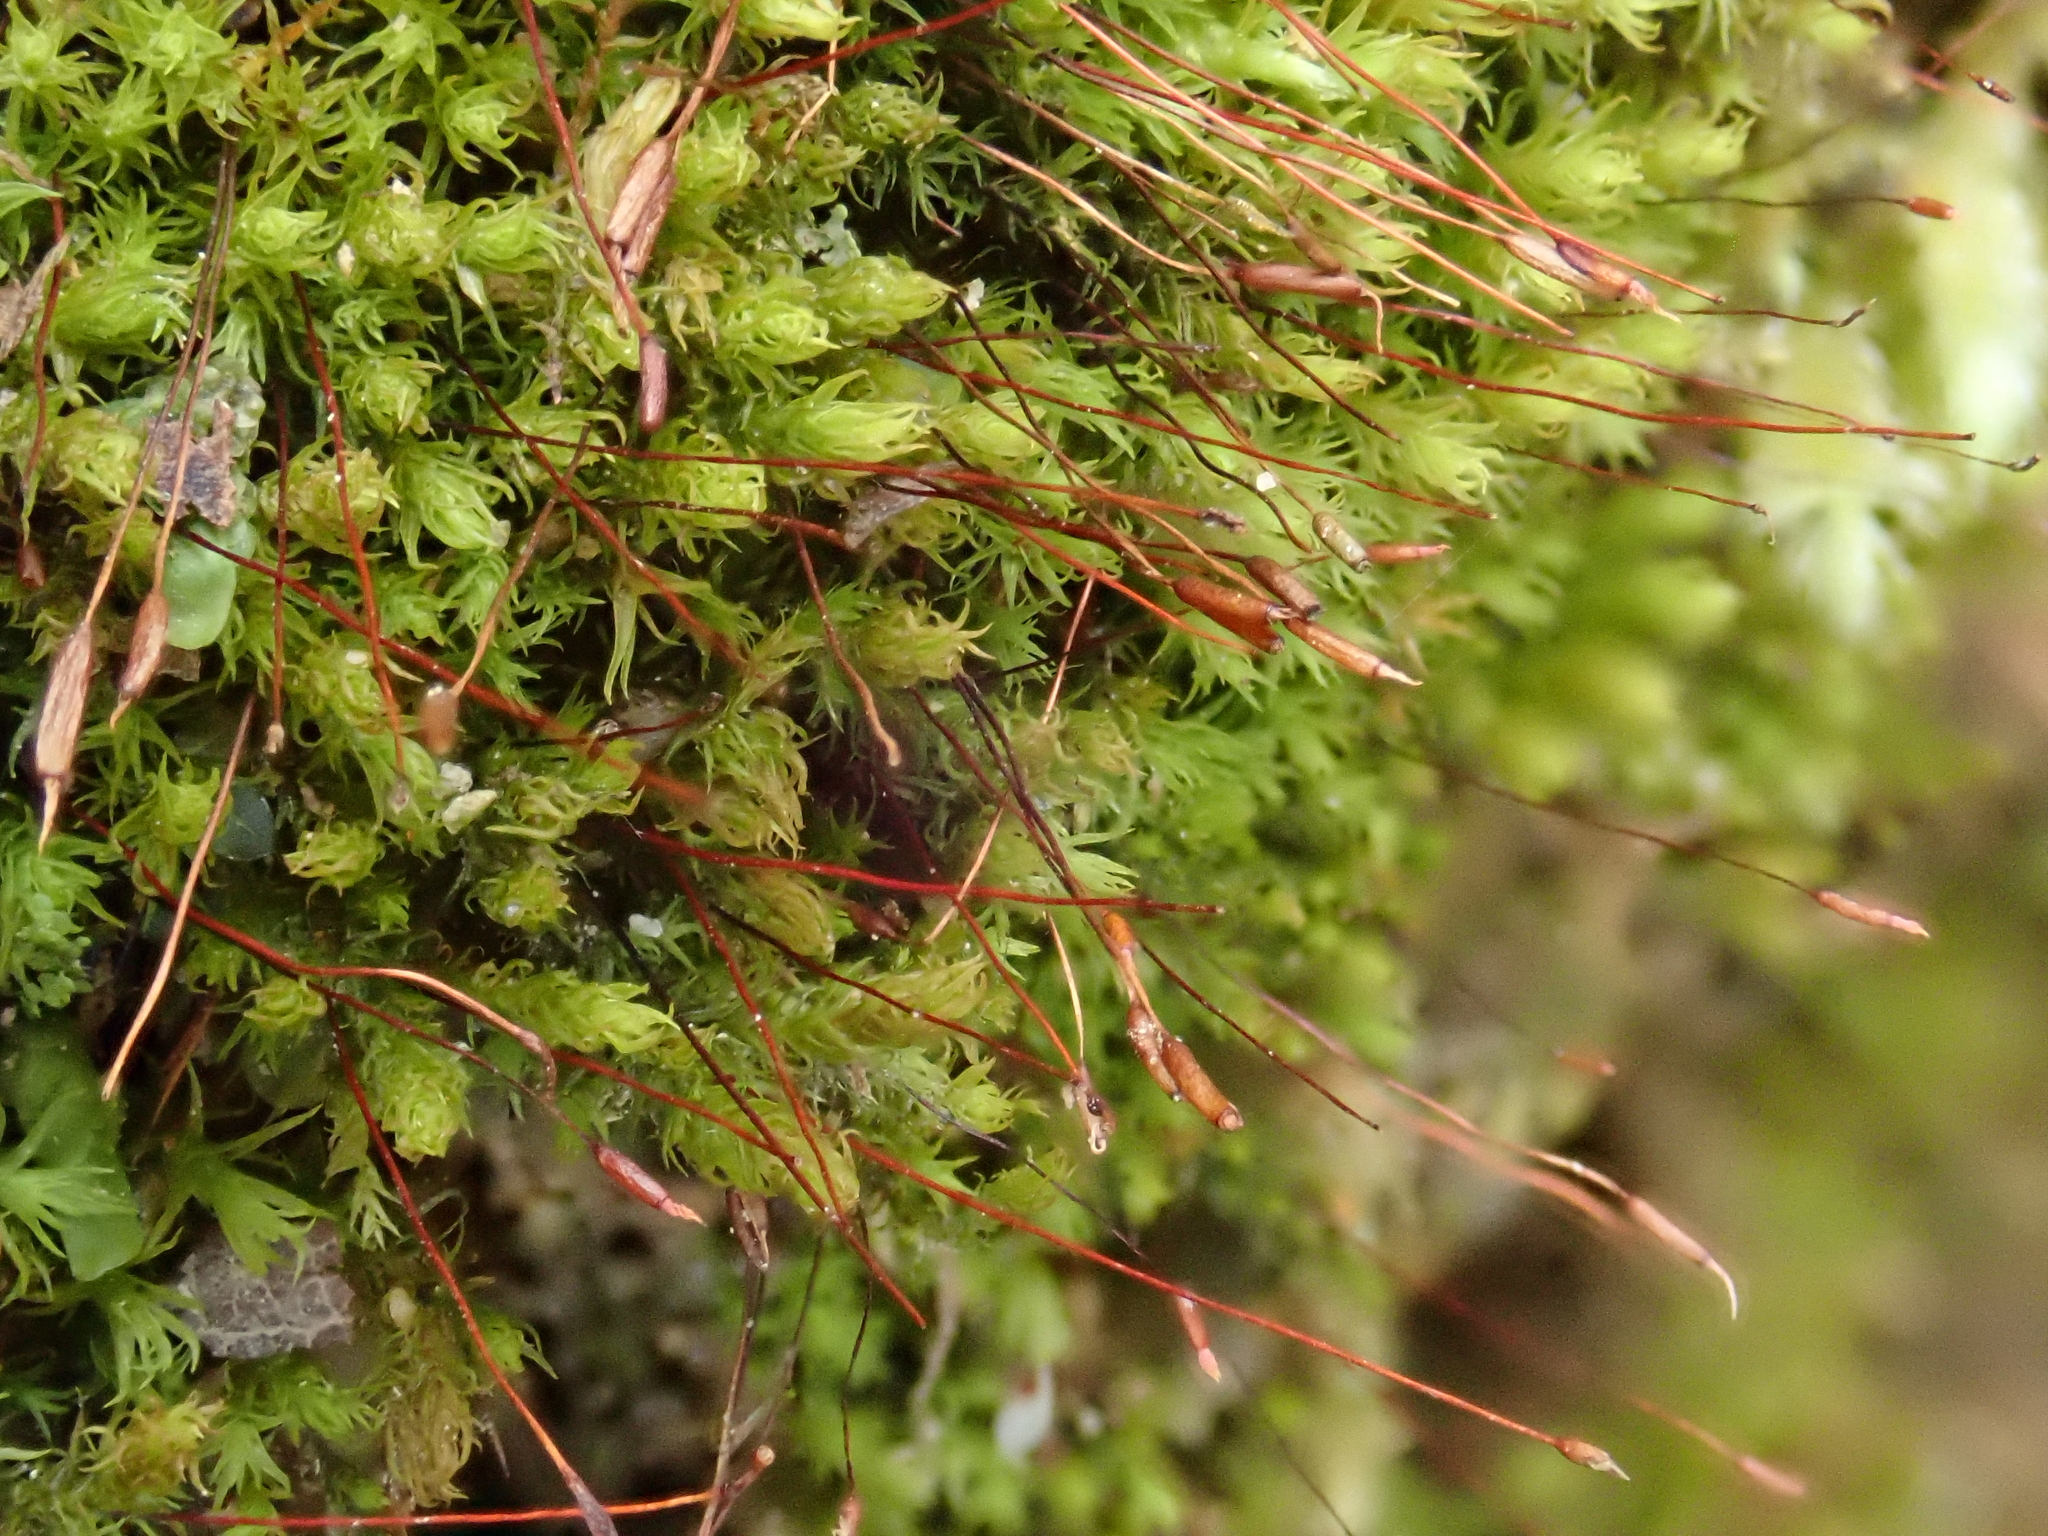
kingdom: Plantae
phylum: Bryophyta
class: Bryopsida
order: Pottiales
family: Pottiaceae
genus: Geheebia
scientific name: Geheebia fallax
